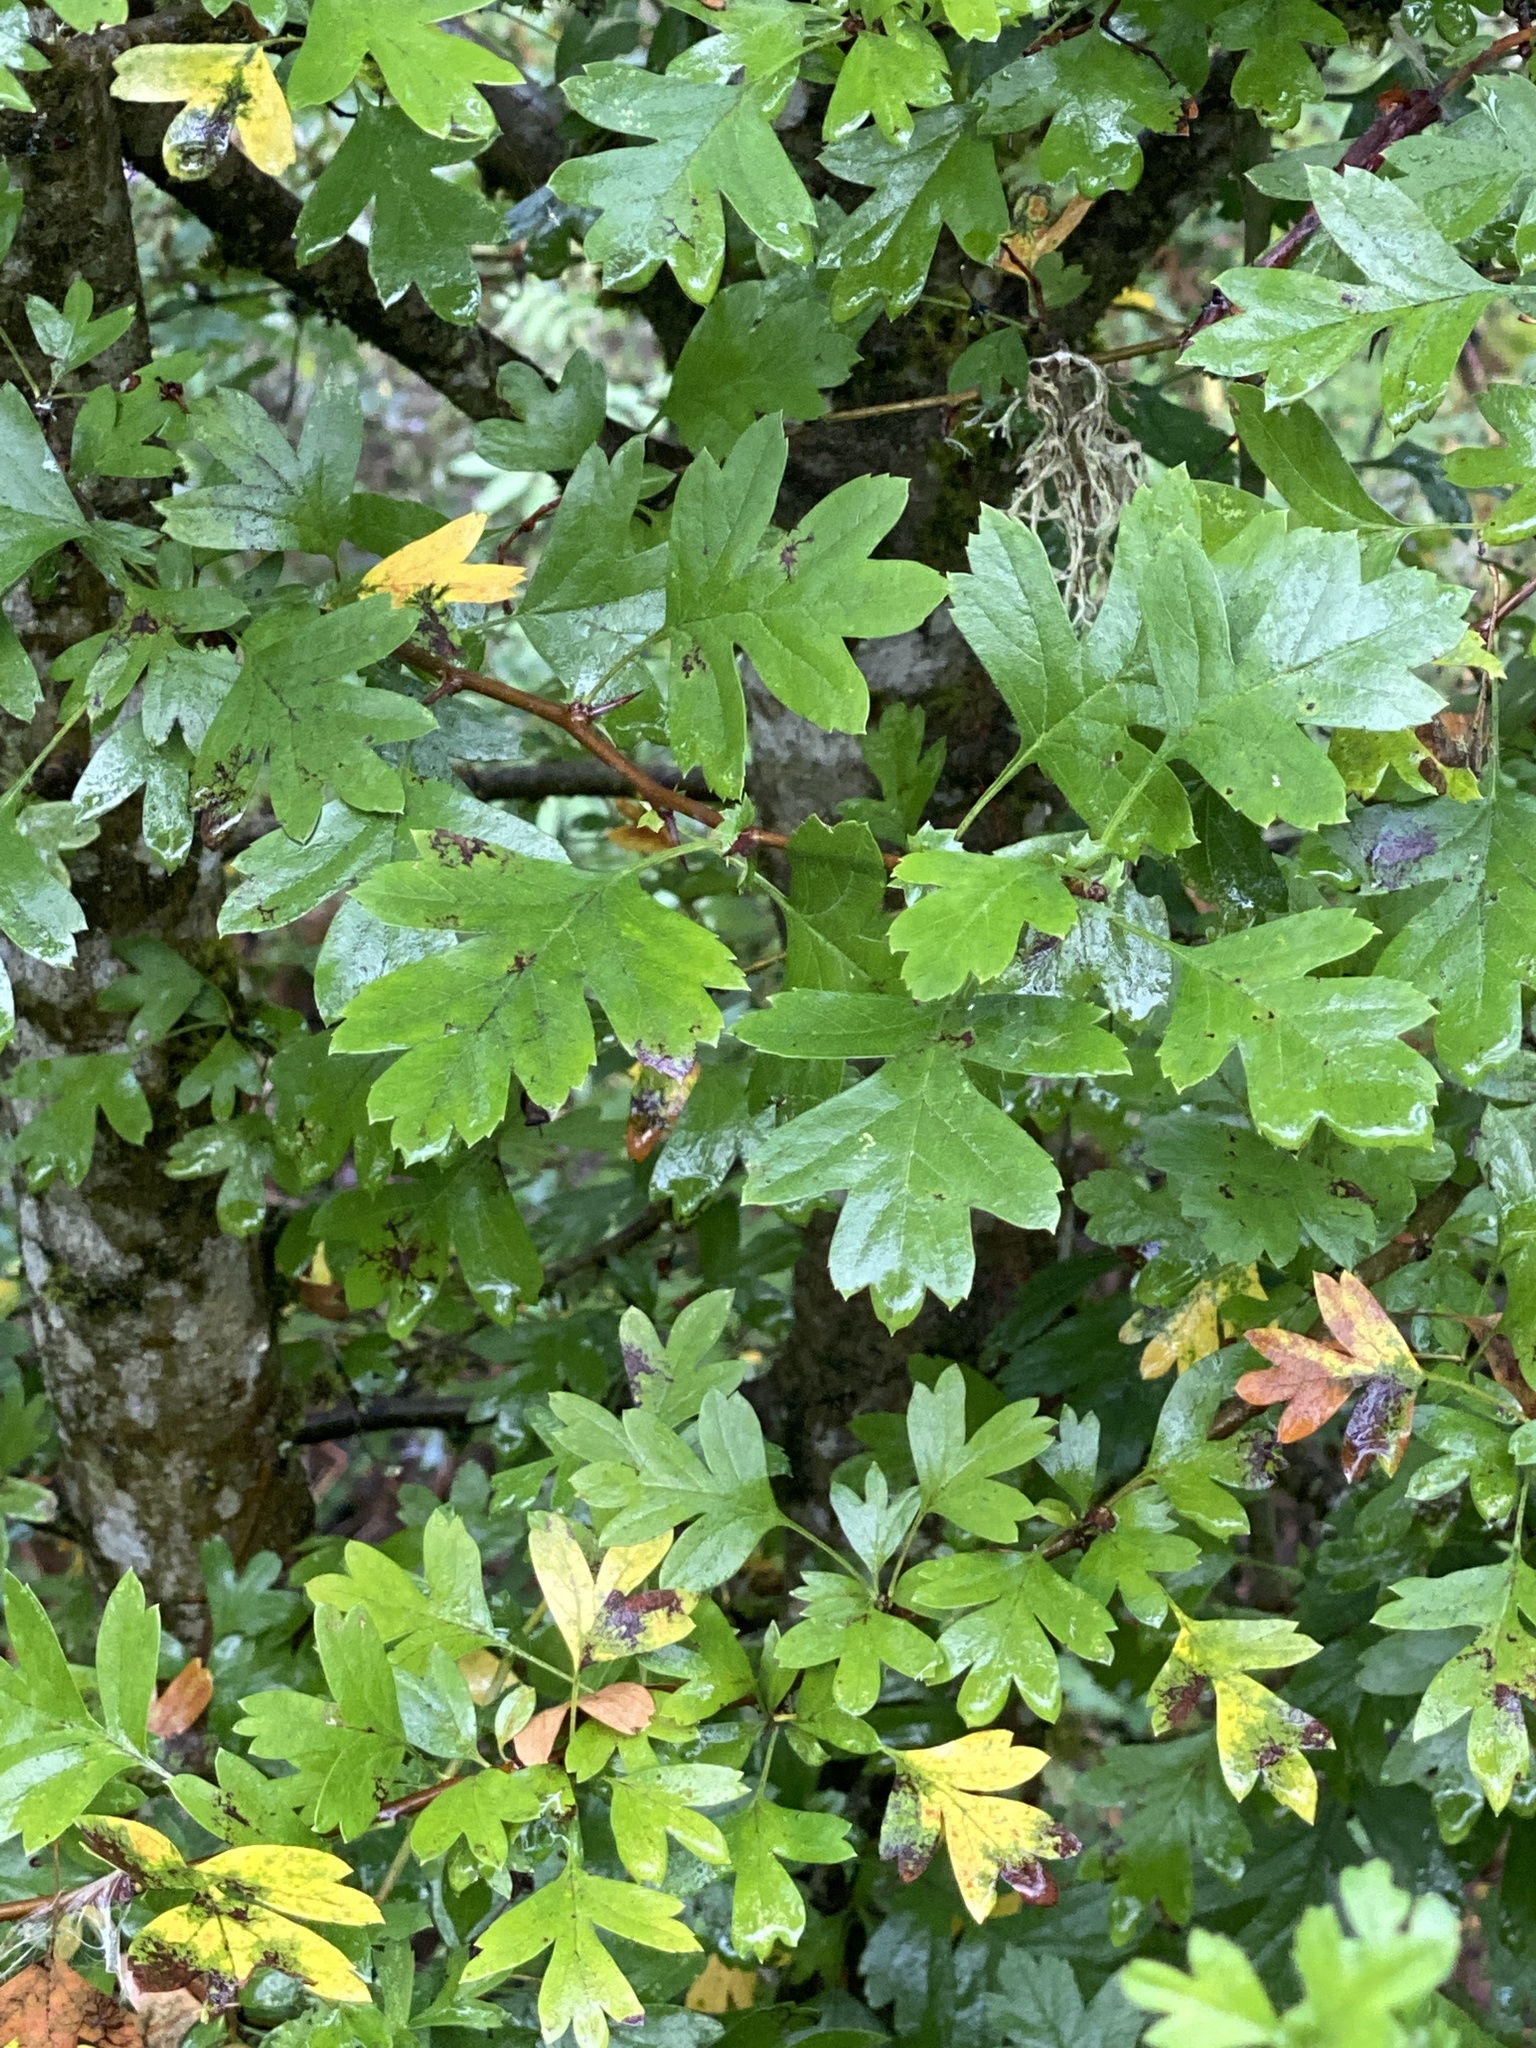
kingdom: Plantae
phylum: Tracheophyta
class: Magnoliopsida
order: Rosales
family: Rosaceae
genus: Crataegus
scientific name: Crataegus monogyna
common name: Hawthorn
